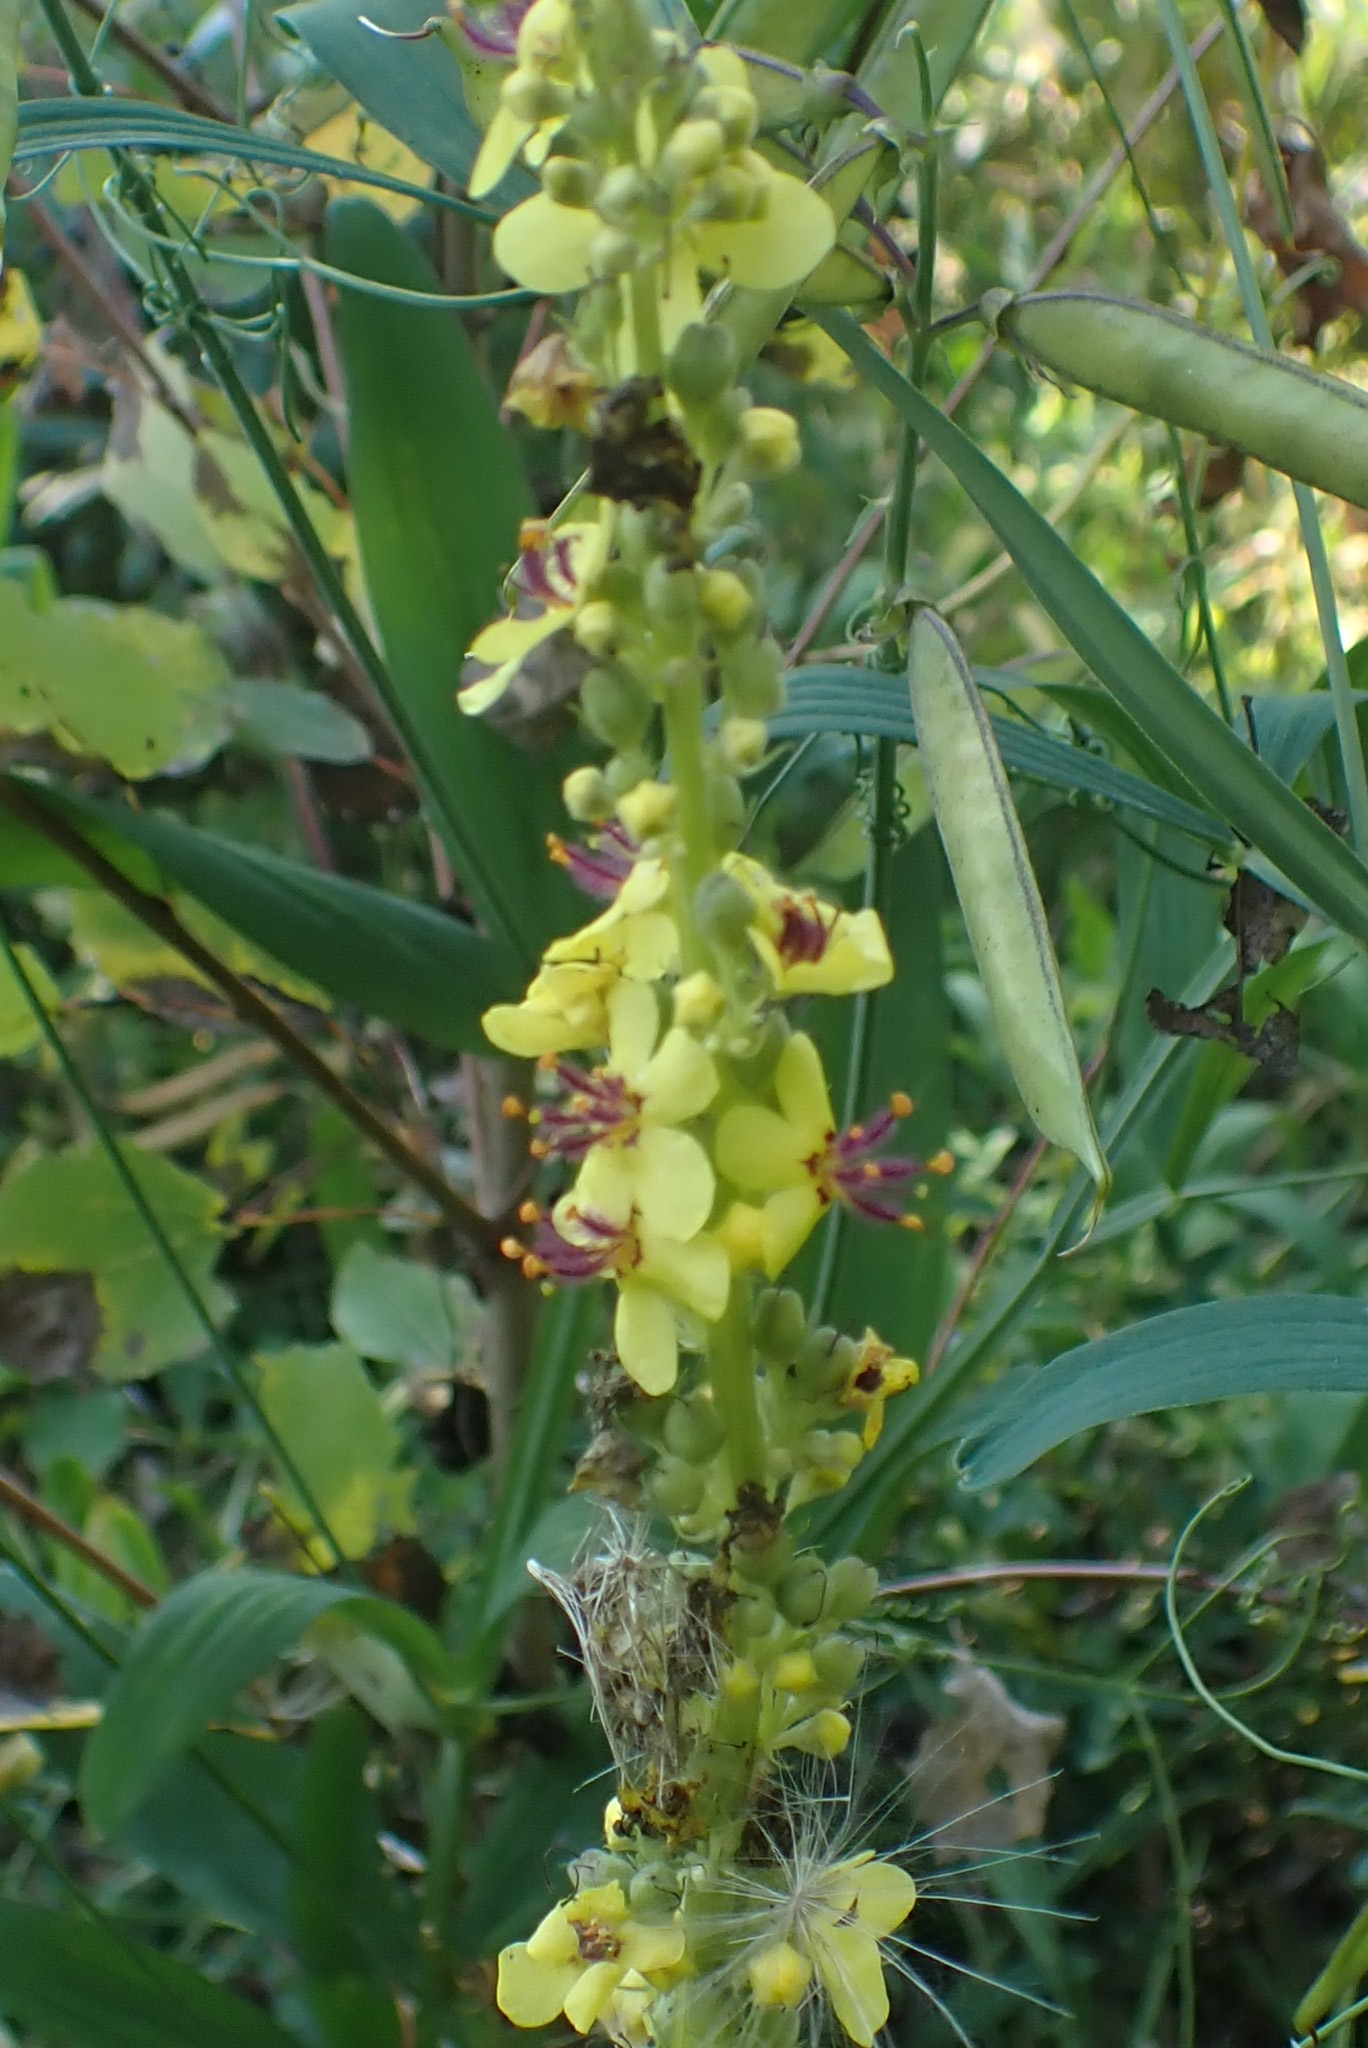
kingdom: Plantae
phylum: Tracheophyta
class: Magnoliopsida
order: Lamiales
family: Scrophulariaceae
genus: Verbascum
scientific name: Verbascum nigrum
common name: Dark mullein
